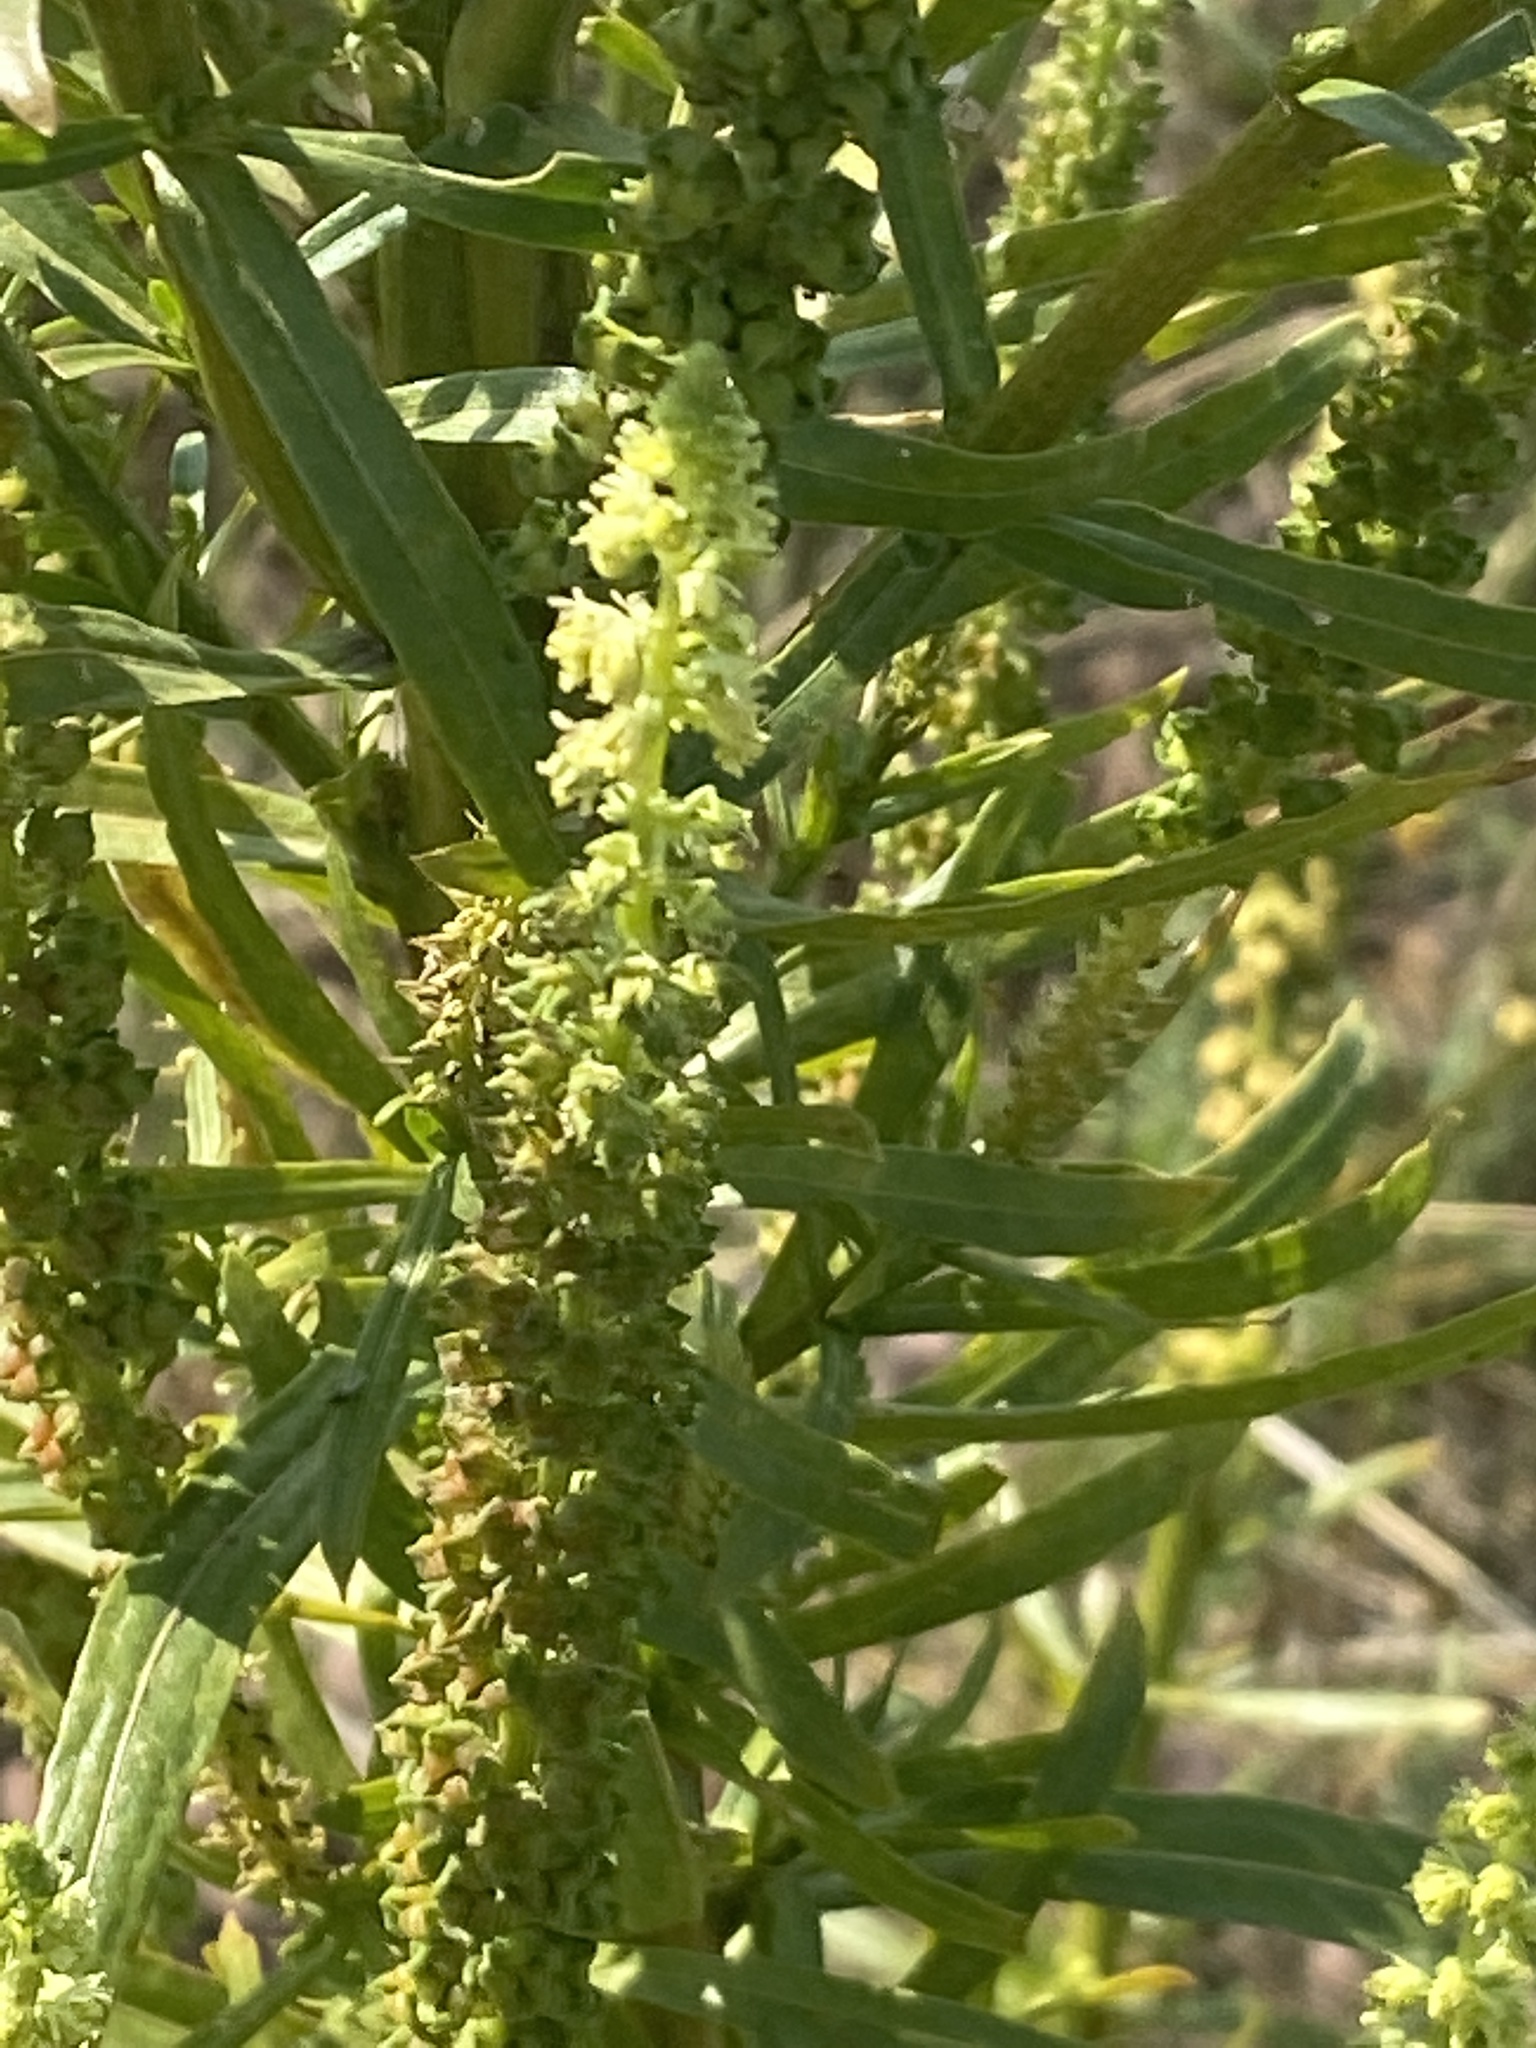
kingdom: Plantae
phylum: Tracheophyta
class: Magnoliopsida
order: Brassicales
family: Resedaceae
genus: Reseda
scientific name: Reseda luteola
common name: Weld
